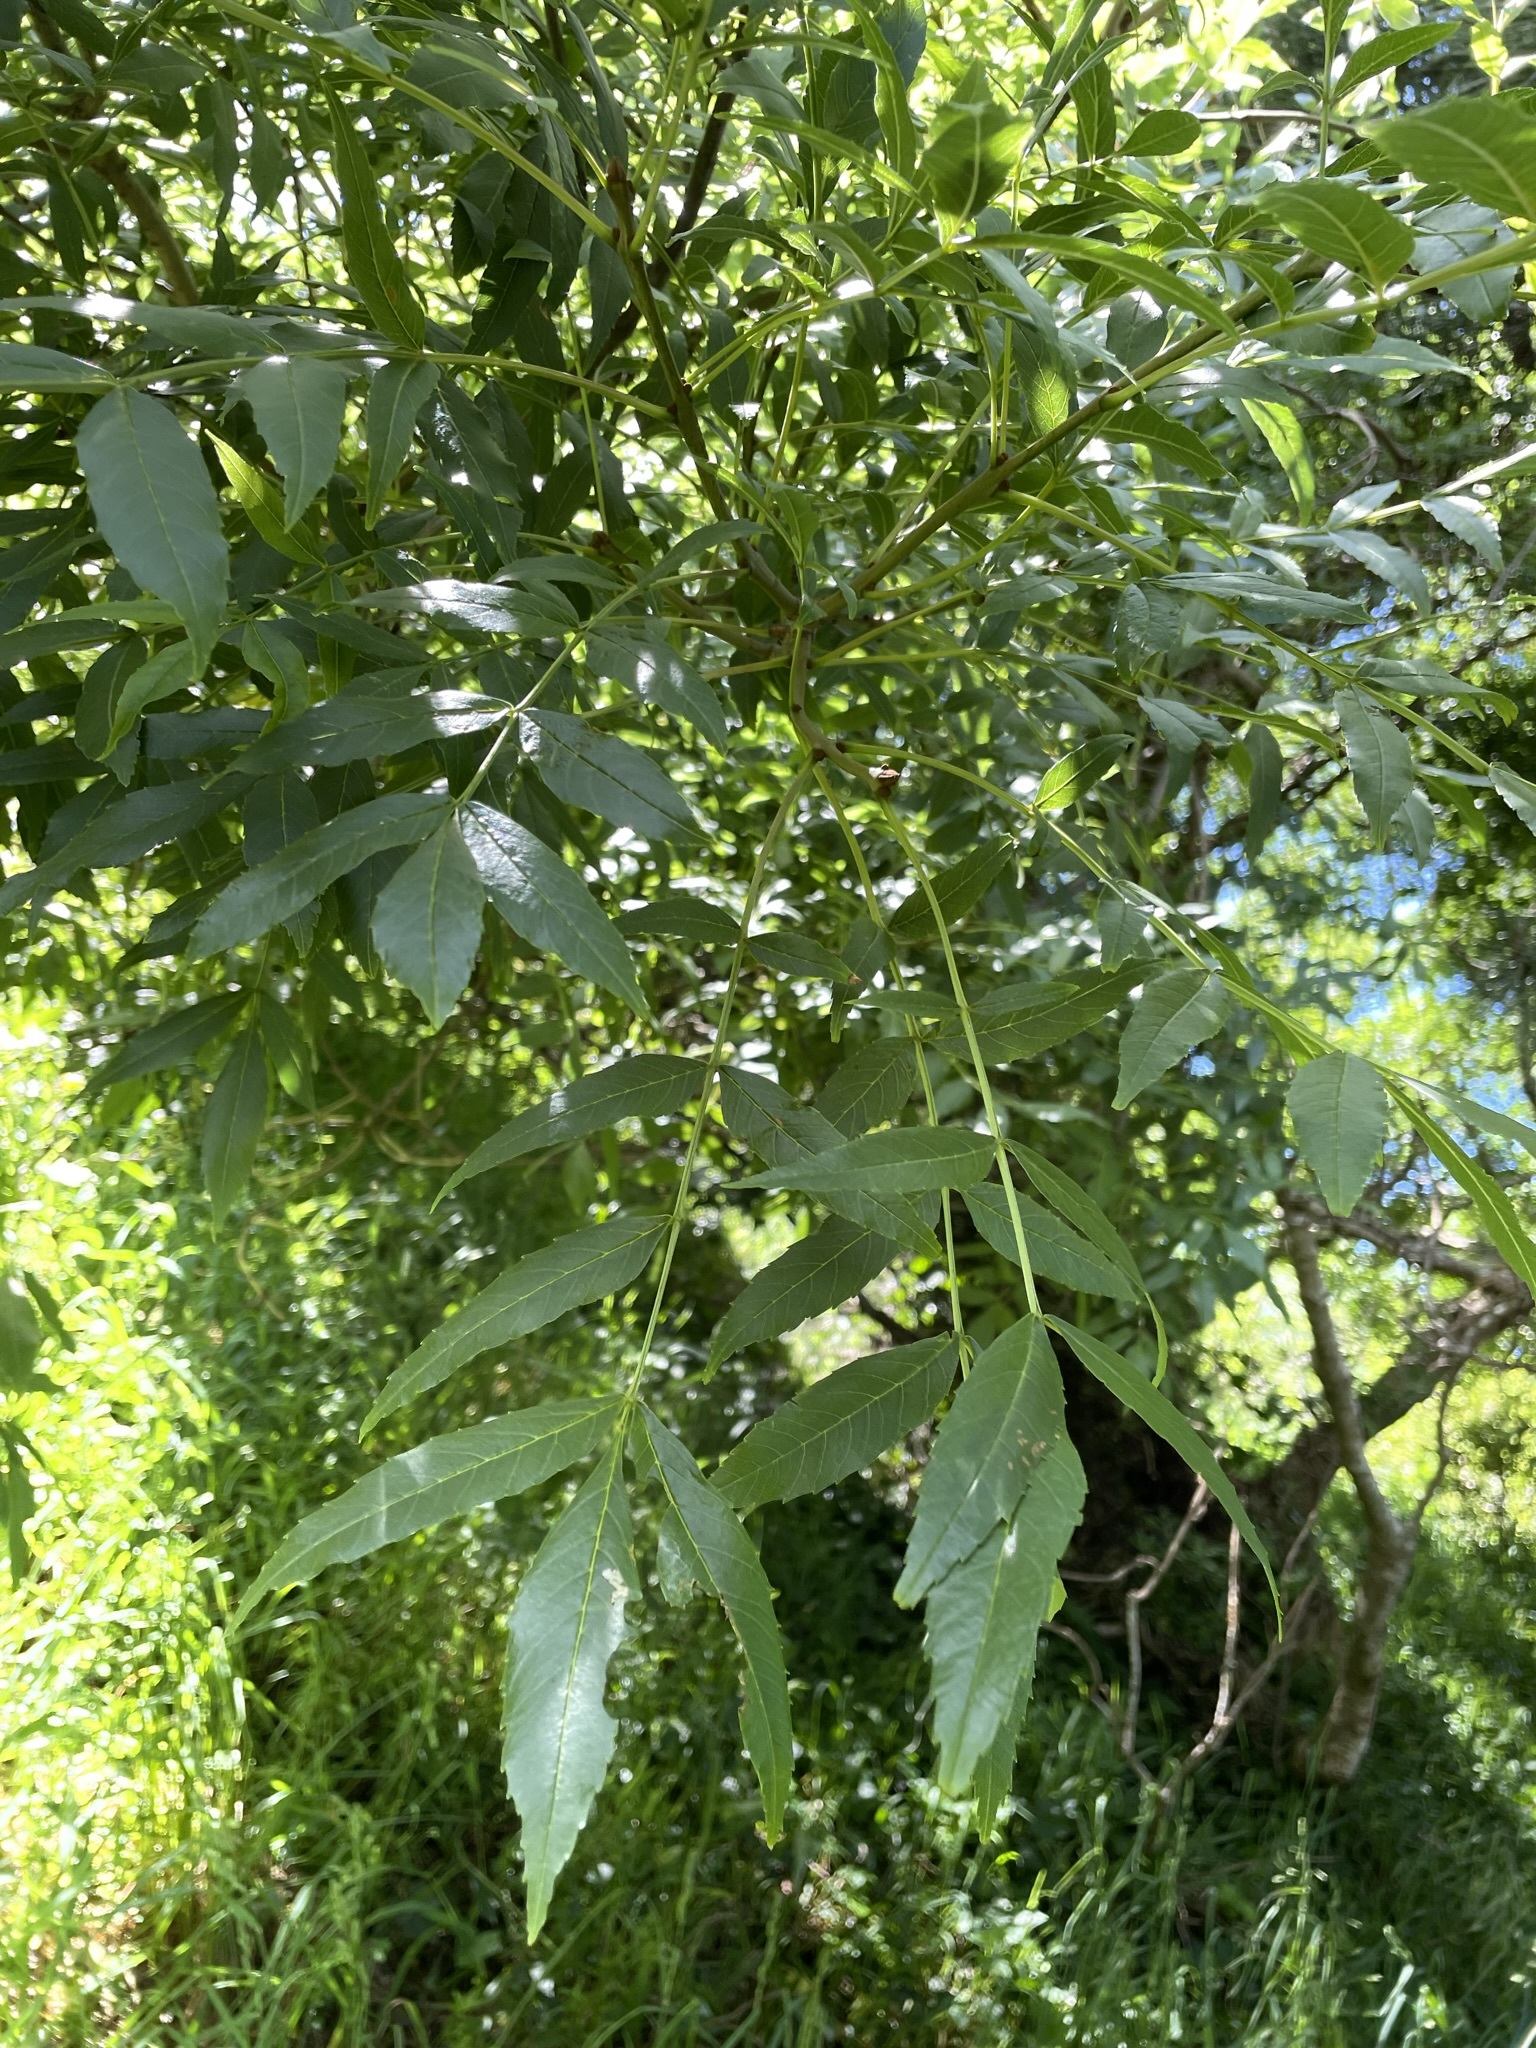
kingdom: Plantae
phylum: Tracheophyta
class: Magnoliopsida
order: Lamiales
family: Oleaceae
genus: Fraxinus
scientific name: Fraxinus excelsior
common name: European ash
